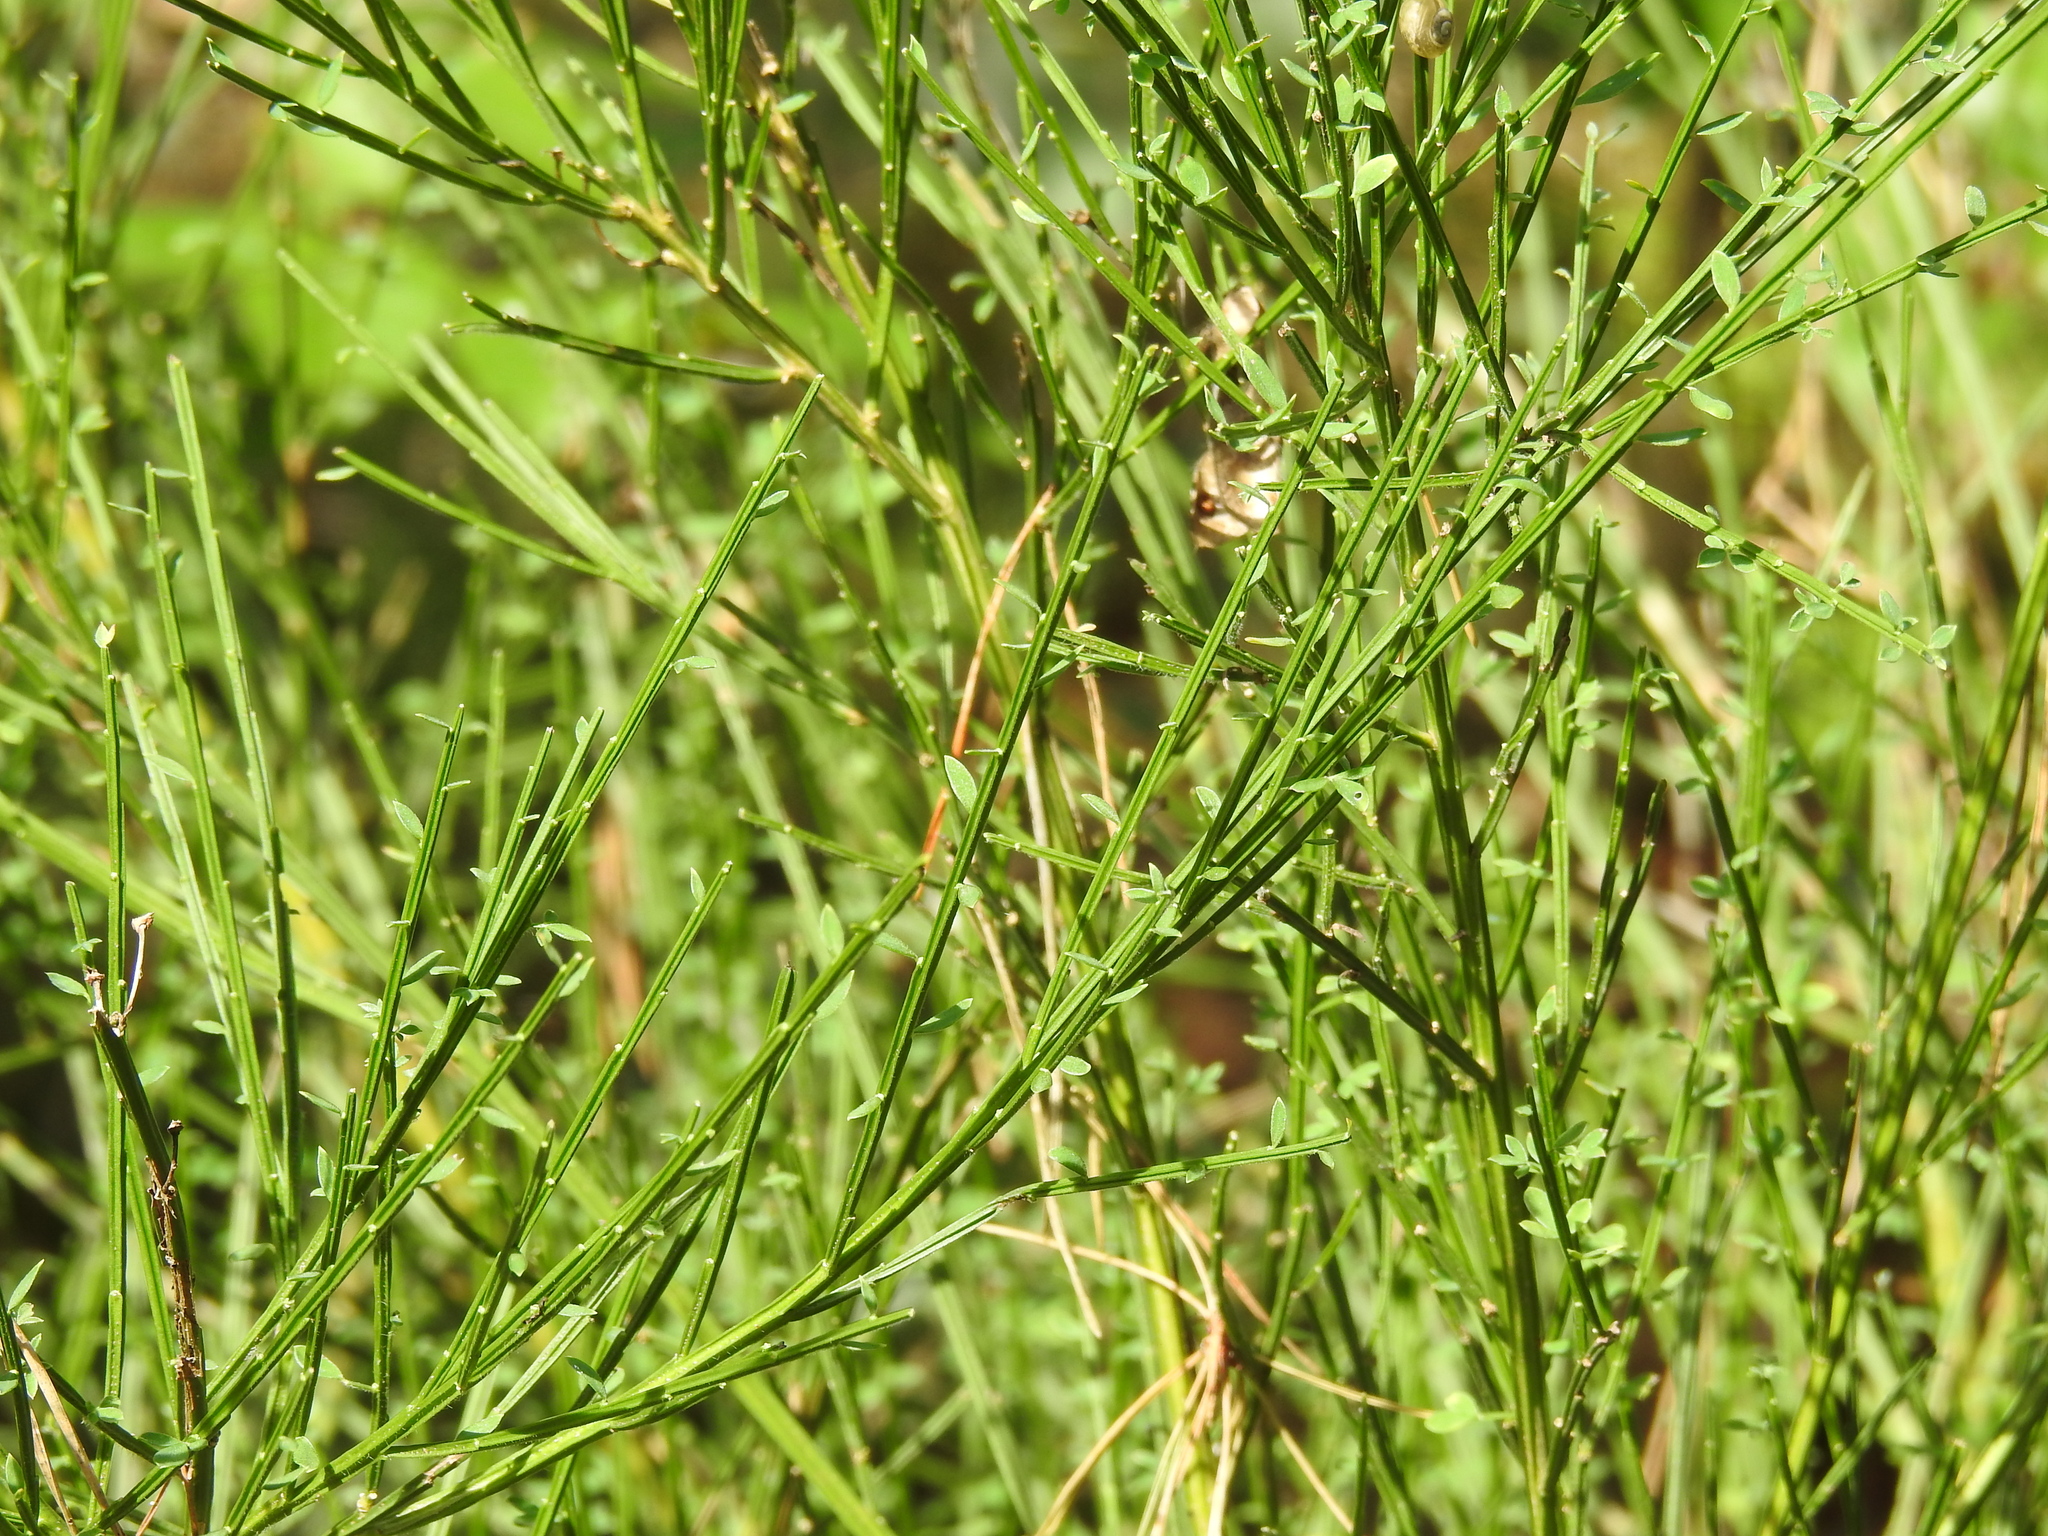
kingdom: Plantae
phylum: Tracheophyta
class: Magnoliopsida
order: Fabales
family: Fabaceae
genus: Cytisus
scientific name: Cytisus scoparius
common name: Scotch broom
